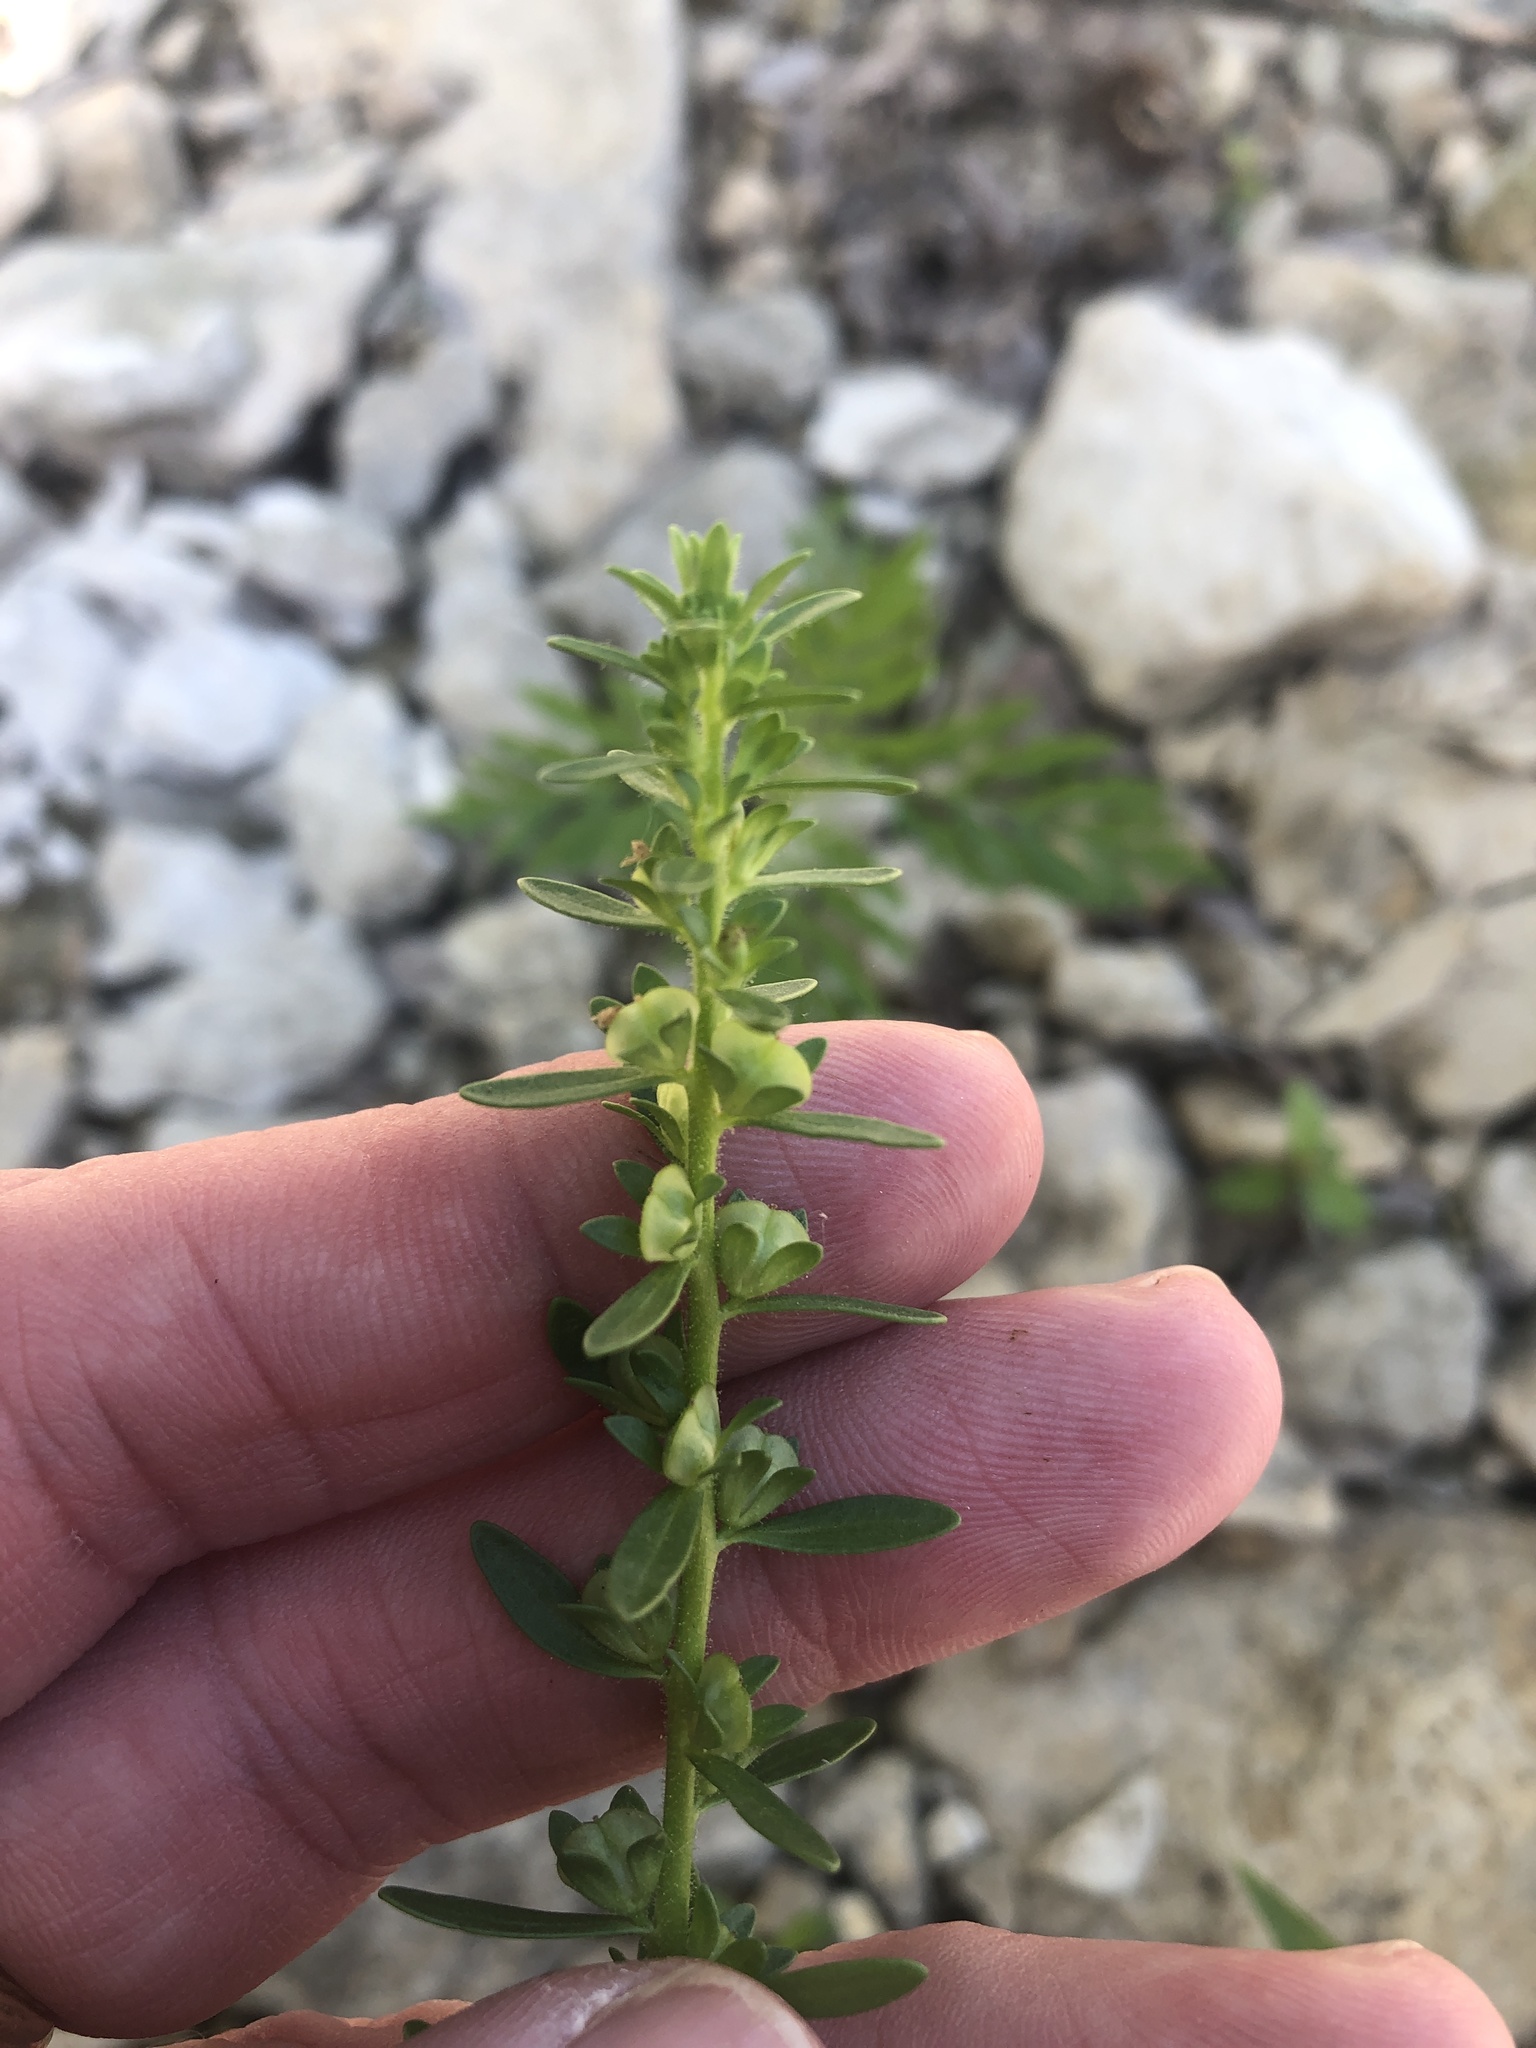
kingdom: Plantae
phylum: Tracheophyta
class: Magnoliopsida
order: Lamiales
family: Plantaginaceae
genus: Veronica
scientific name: Veronica peregrina
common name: Neckweed
